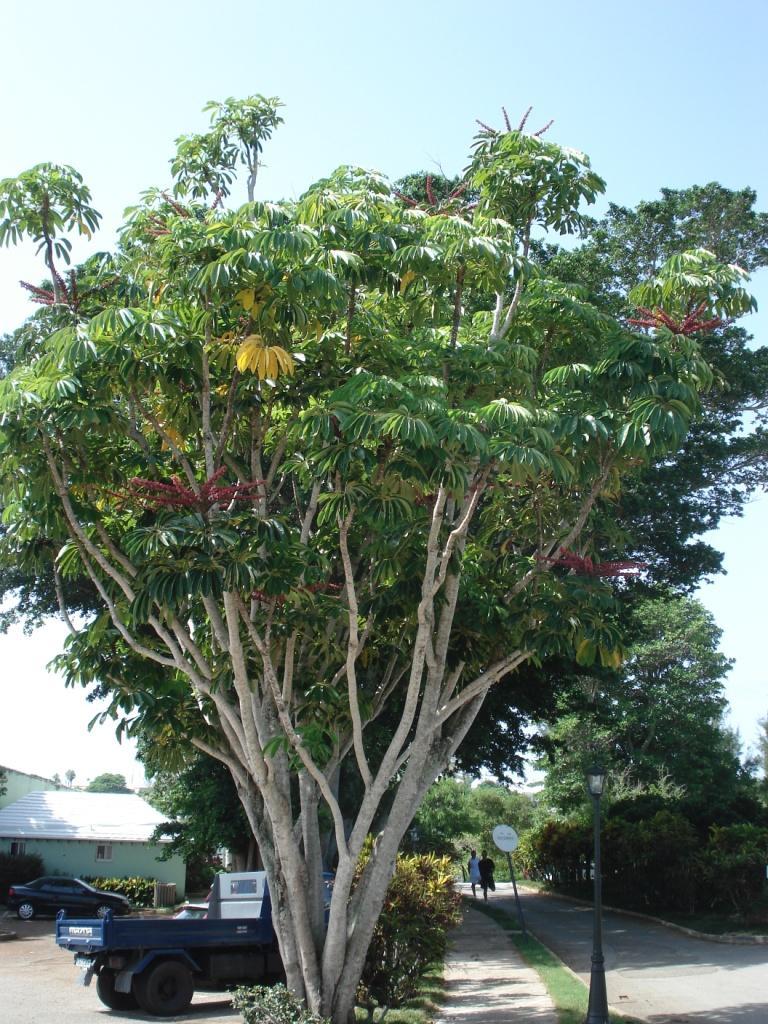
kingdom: Plantae
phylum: Tracheophyta
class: Magnoliopsida
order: Apiales
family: Araliaceae
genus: Heptapleurum
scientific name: Heptapleurum actinophyllum
